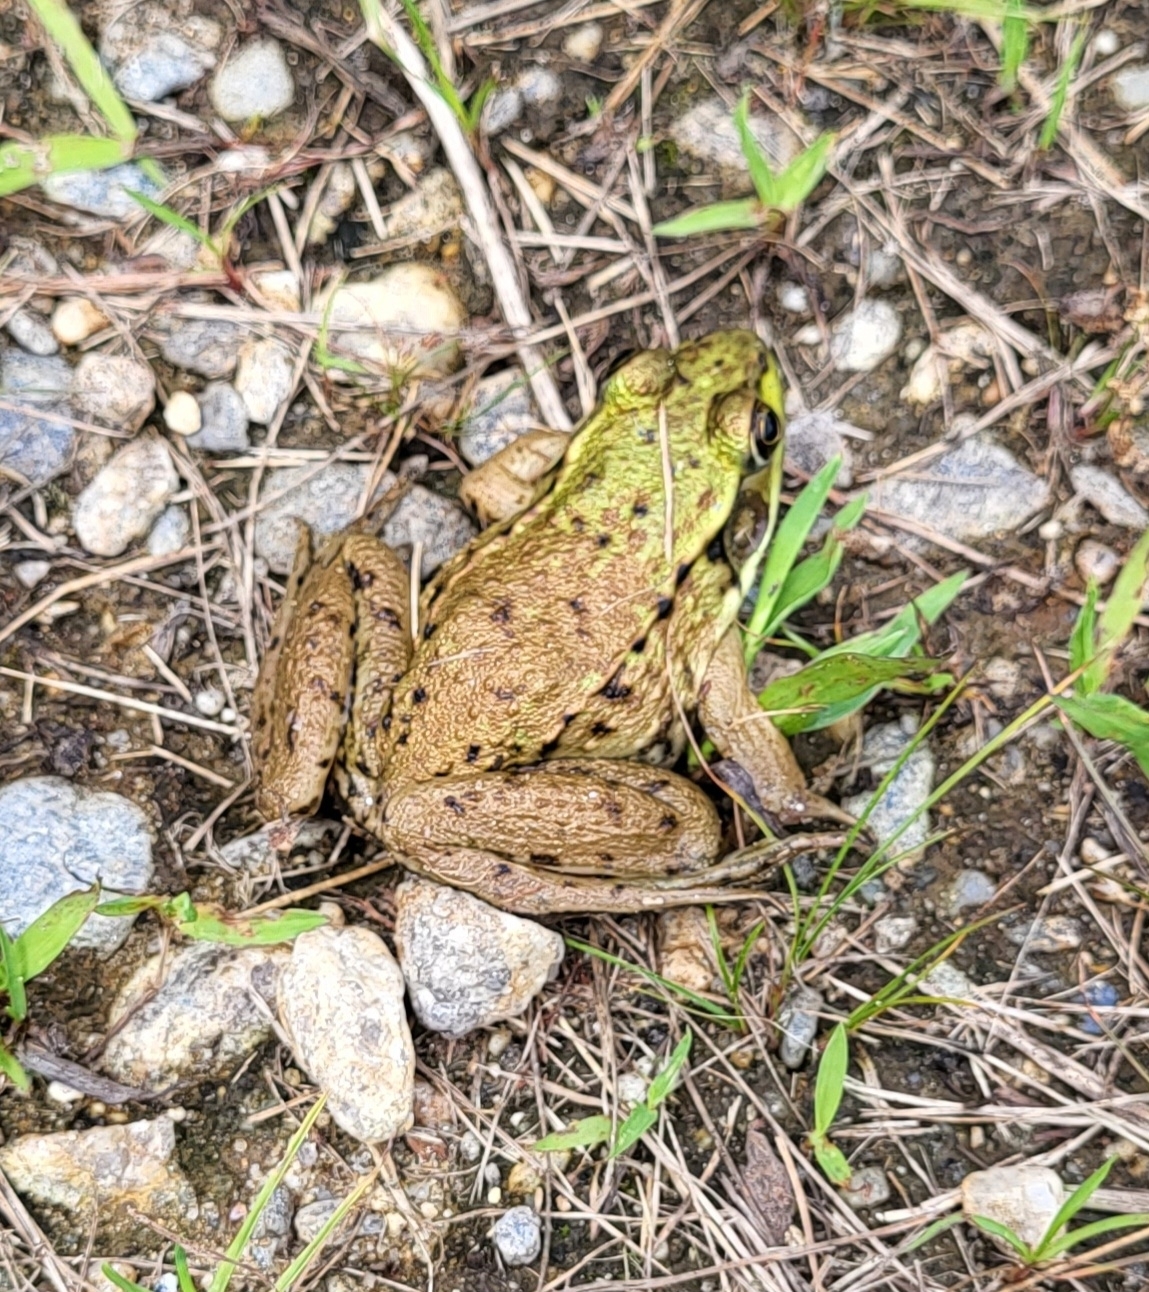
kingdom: Animalia
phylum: Chordata
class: Amphibia
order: Anura
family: Ranidae
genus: Lithobates
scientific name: Lithobates clamitans
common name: Green frog
